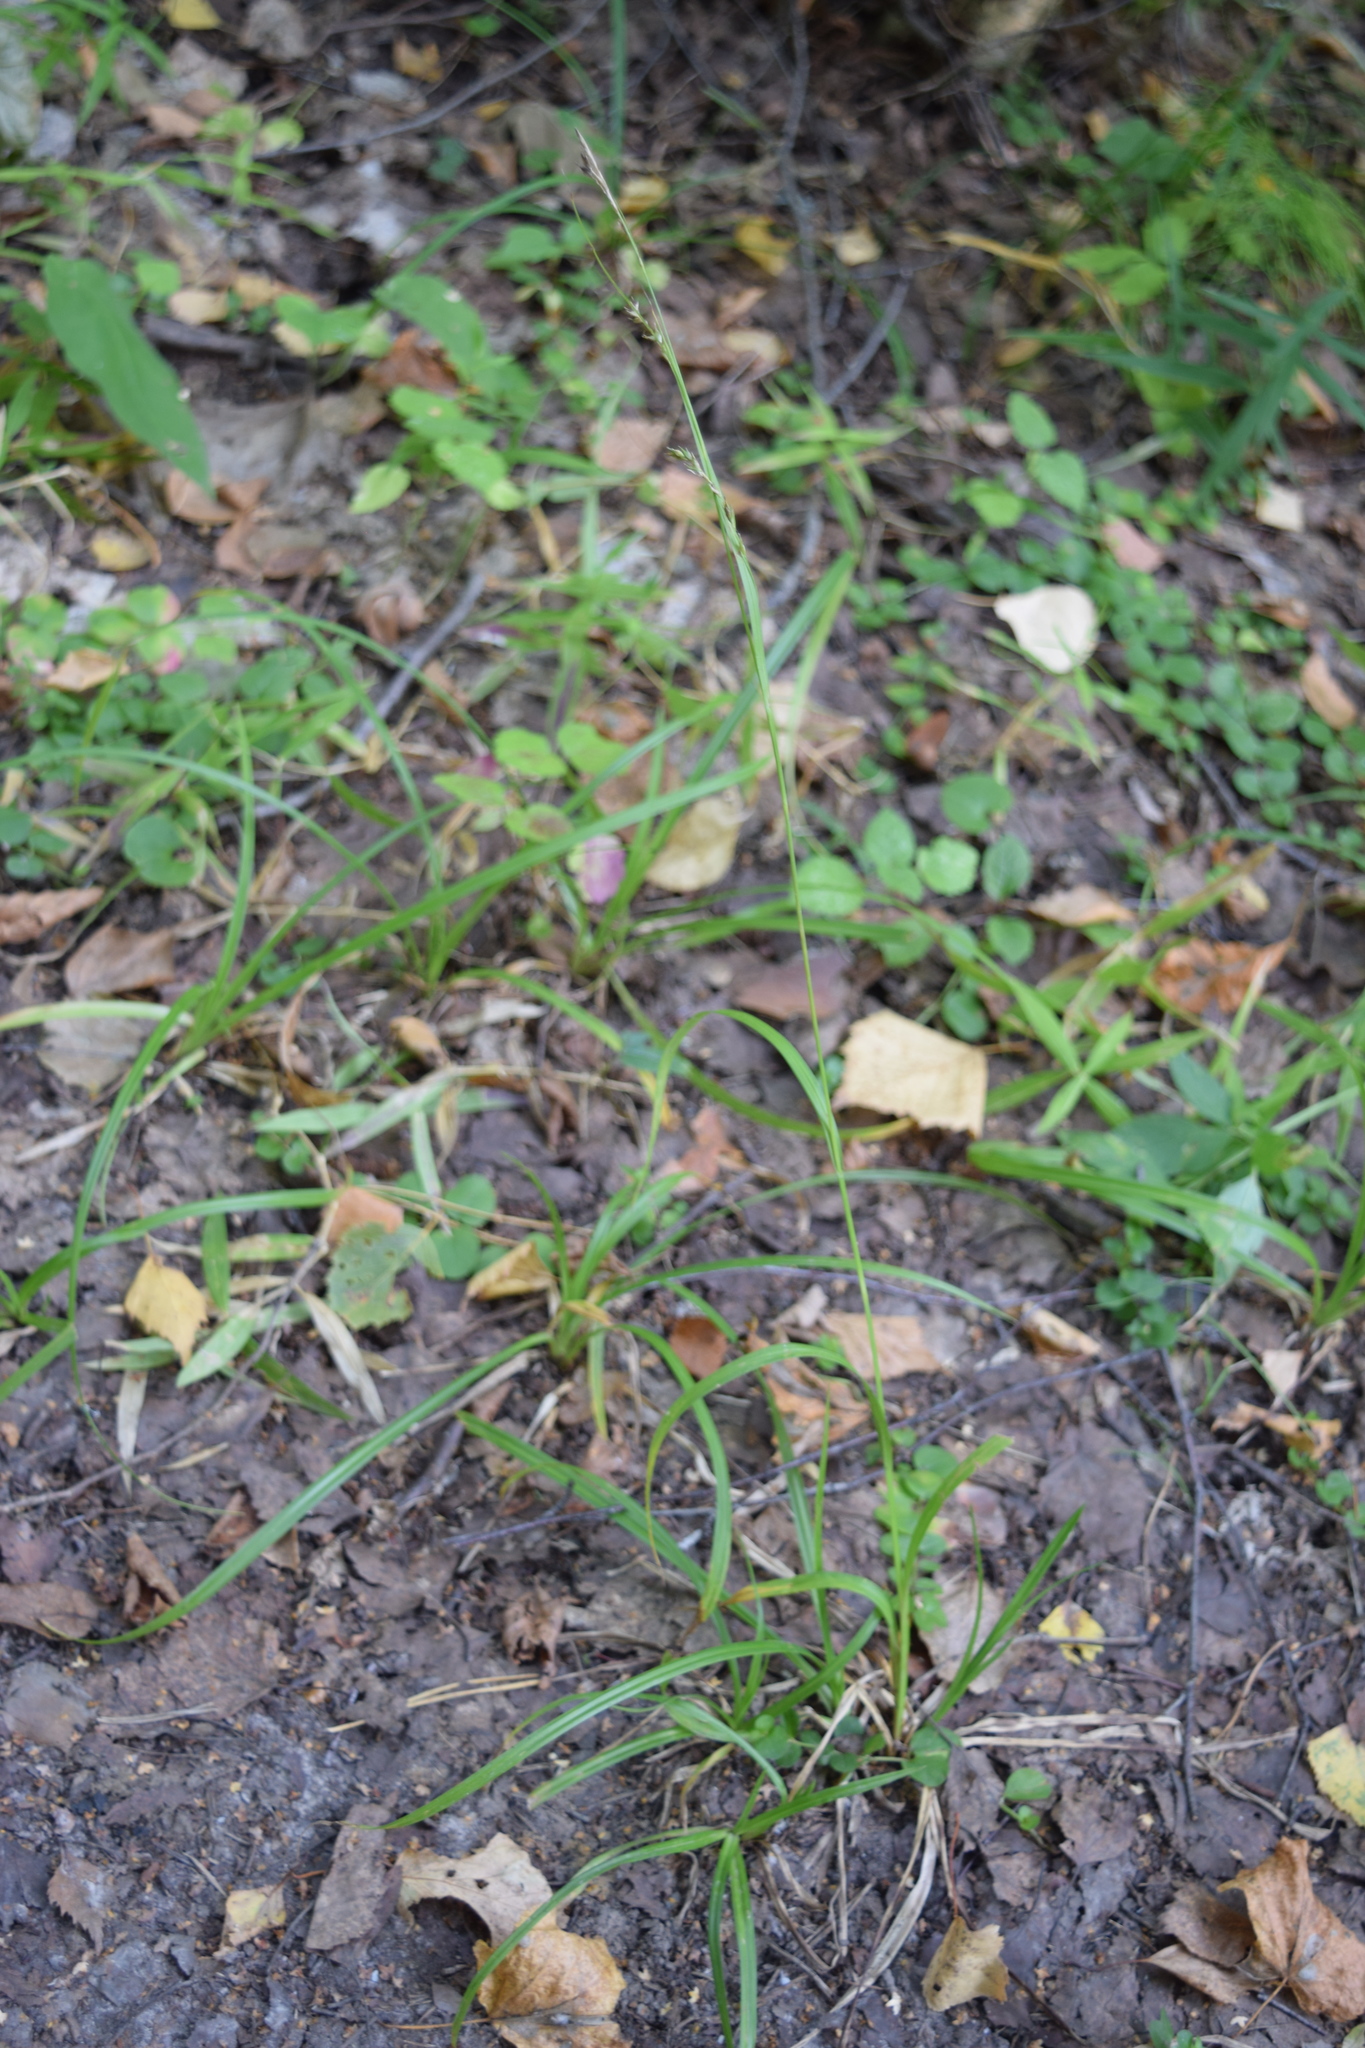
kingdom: Plantae
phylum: Tracheophyta
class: Liliopsida
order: Poales
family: Cyperaceae
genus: Carex
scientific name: Carex sylvatica
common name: Wood-sedge
